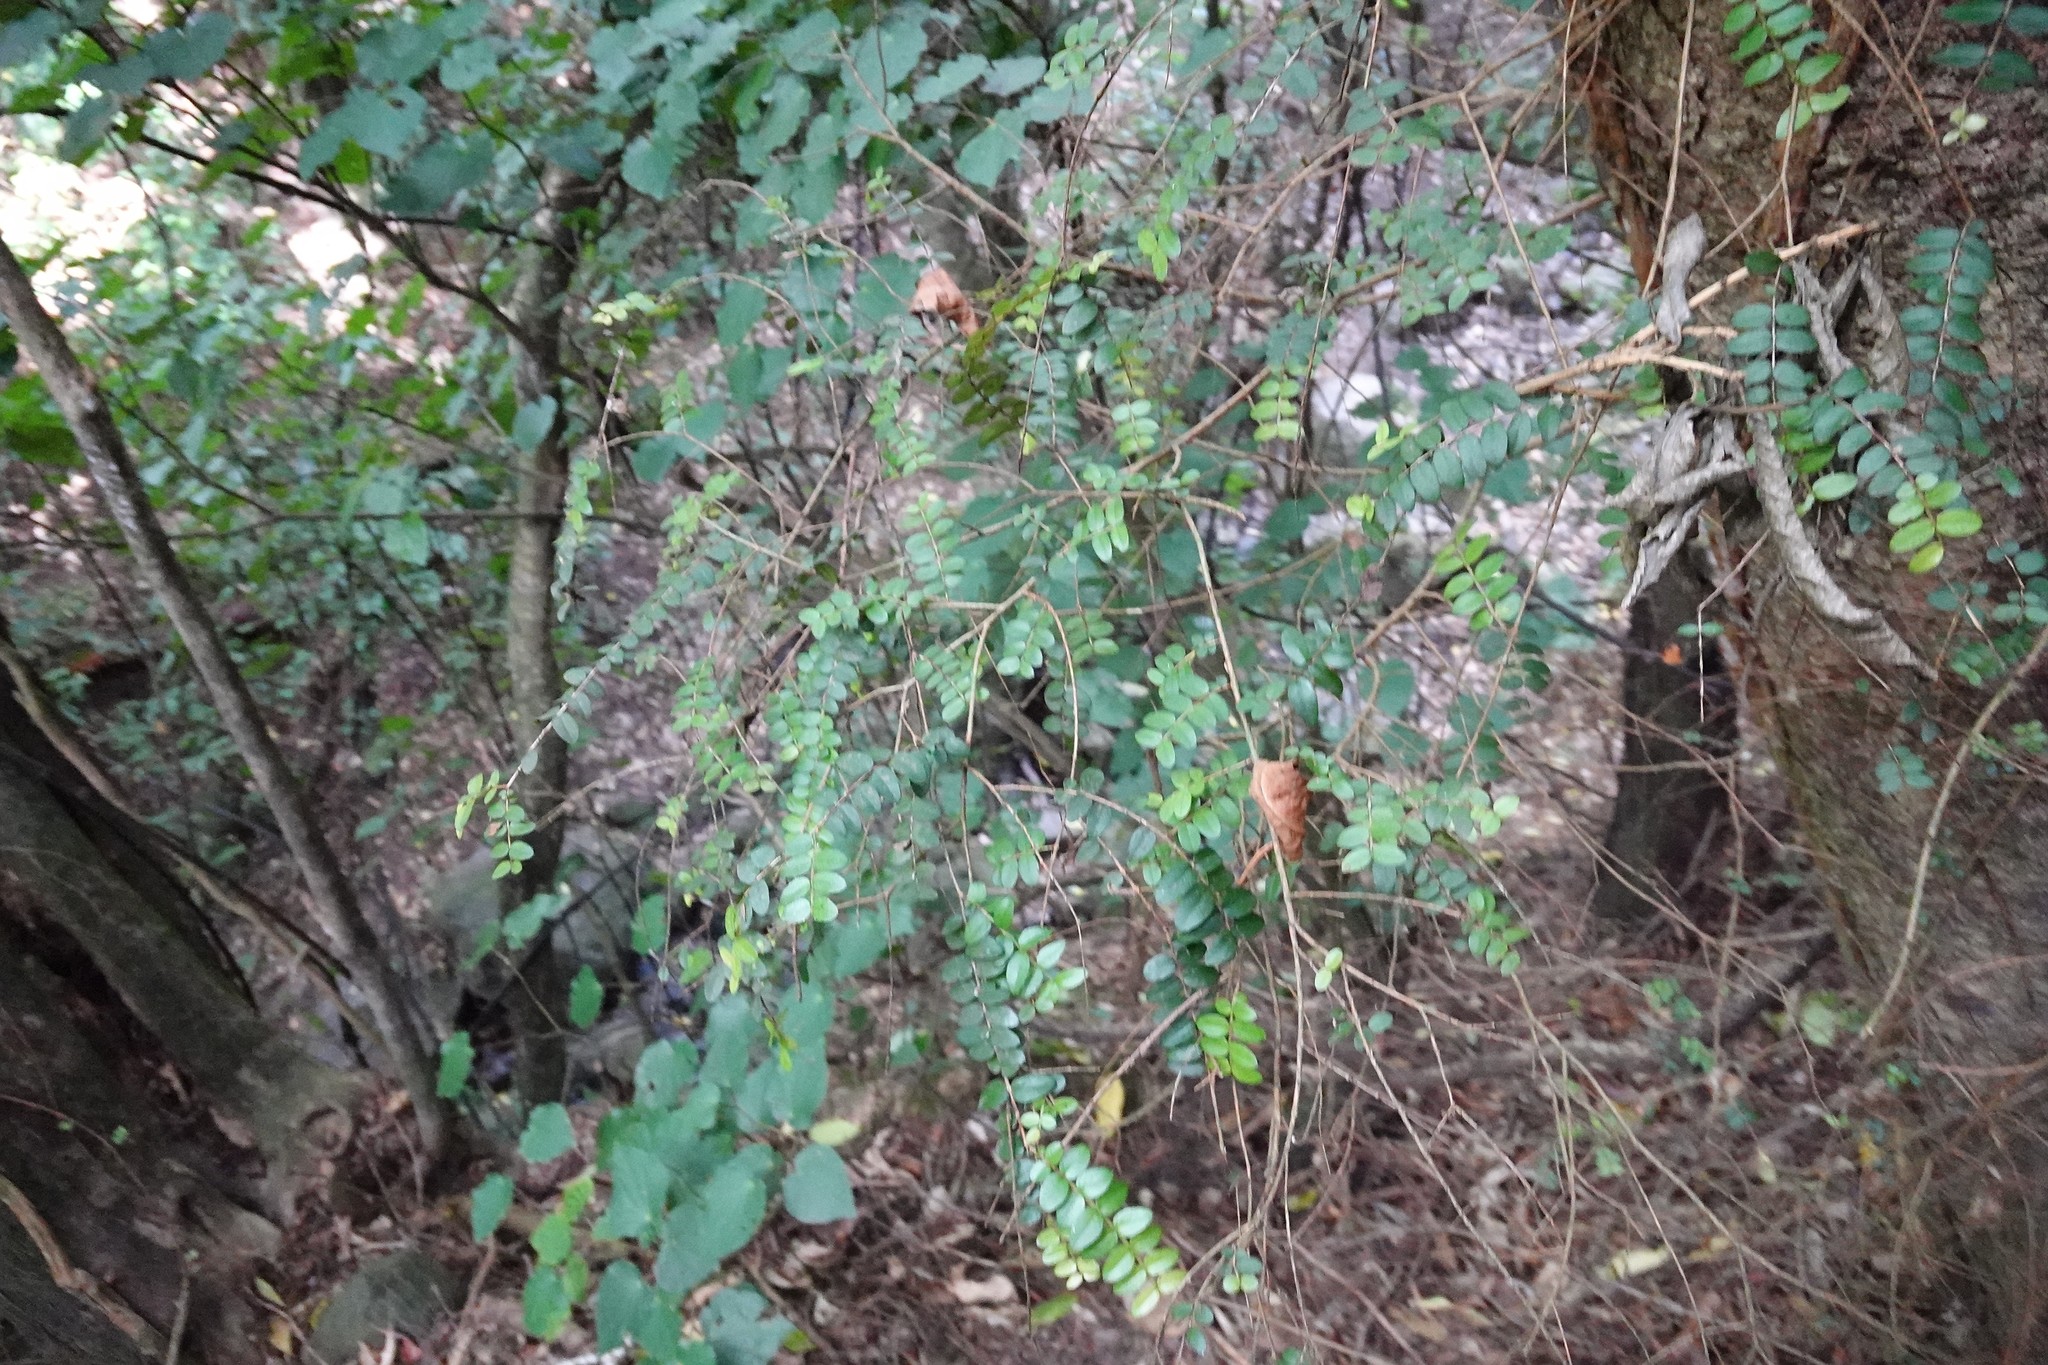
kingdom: Plantae
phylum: Tracheophyta
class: Magnoliopsida
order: Myrtales
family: Myrtaceae
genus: Metrosideros
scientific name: Metrosideros diffusa
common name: Small ratavine
